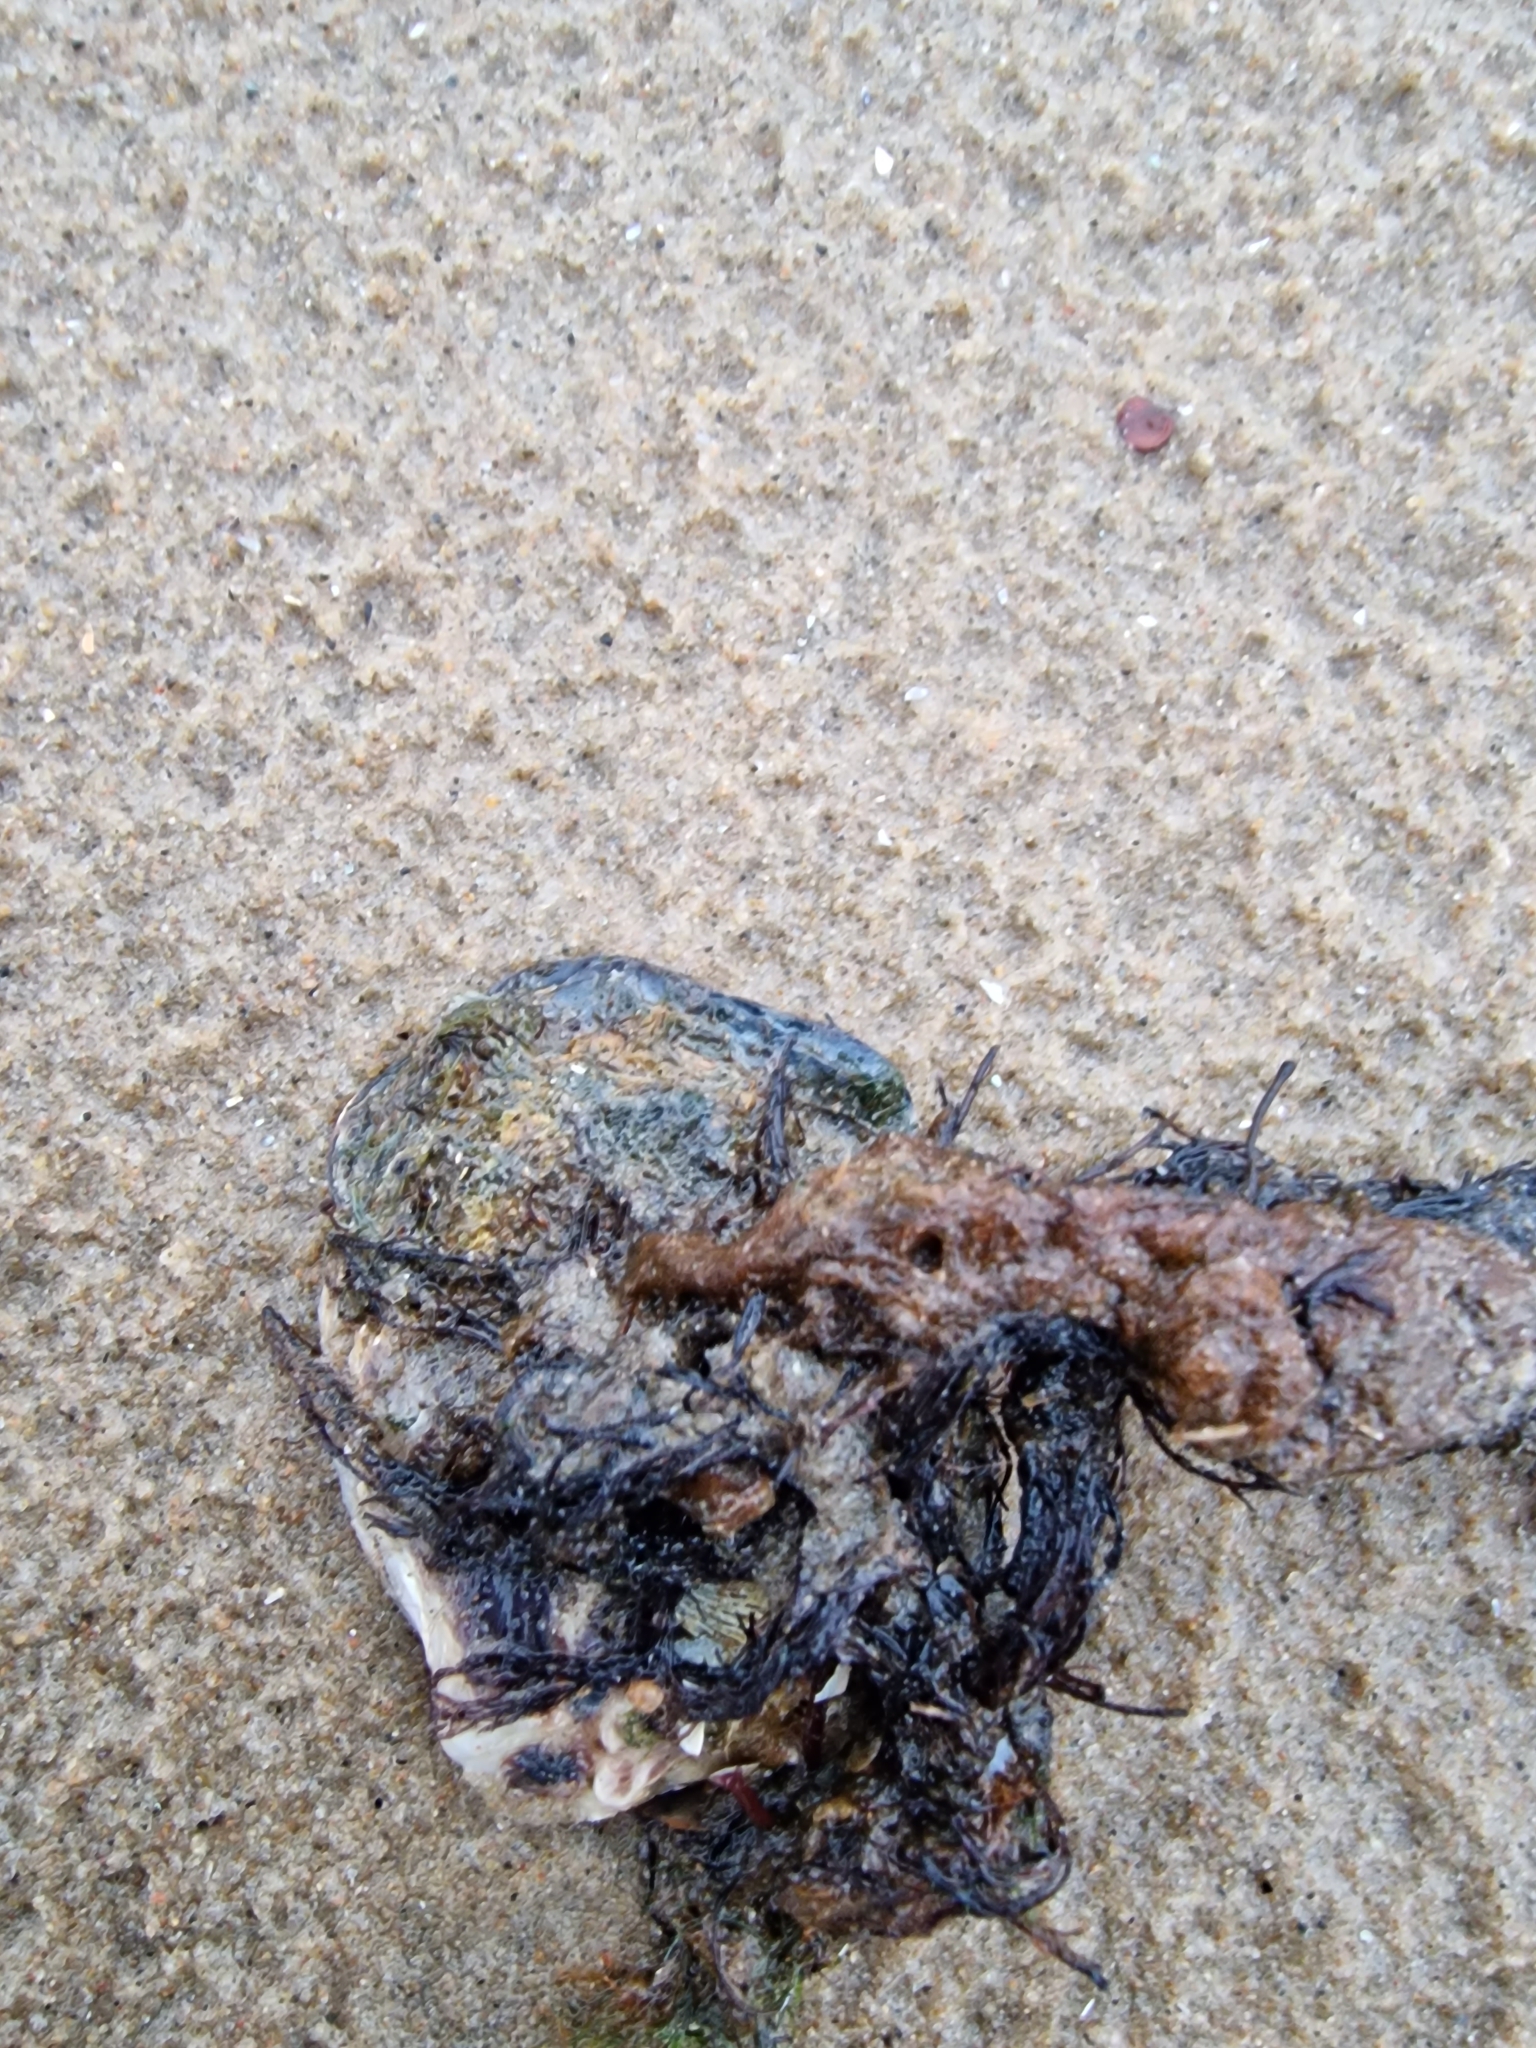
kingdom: Animalia
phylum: Mollusca
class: Bivalvia
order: Ostreida
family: Ostreidae
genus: Magallana
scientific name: Magallana gigas
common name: Pacific oyster
